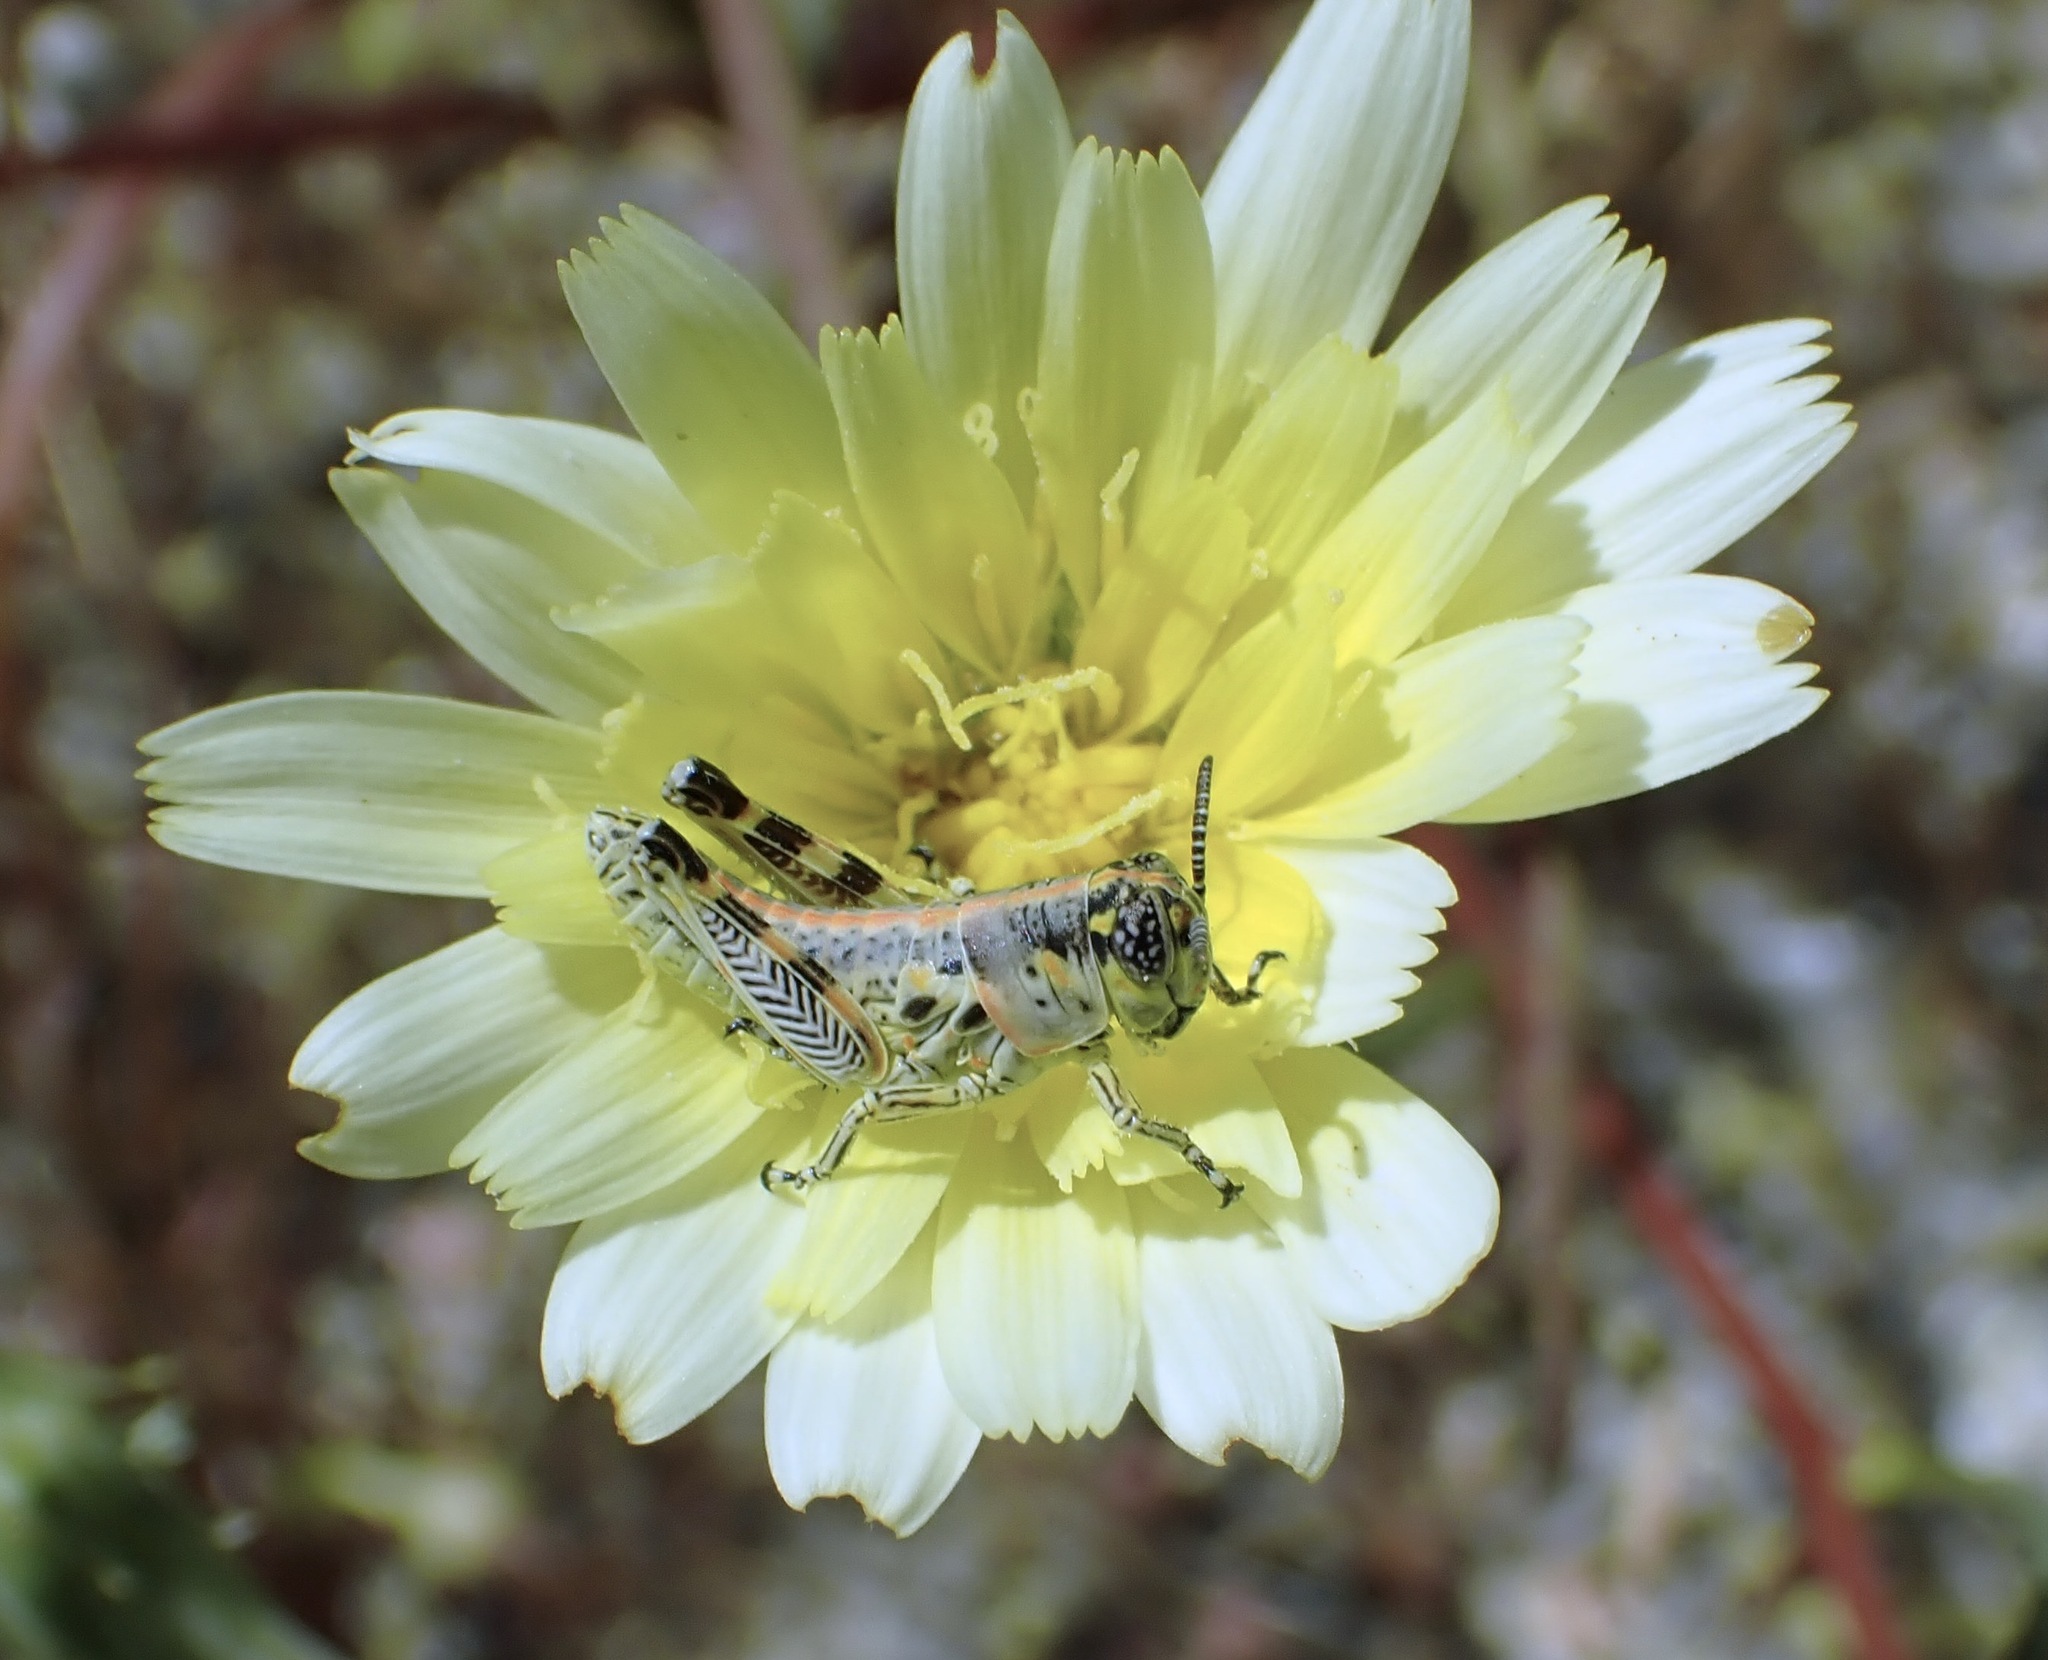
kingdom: Animalia
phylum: Arthropoda
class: Insecta
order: Orthoptera
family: Acrididae
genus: Poecilotettix
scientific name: Poecilotettix sanguineus
